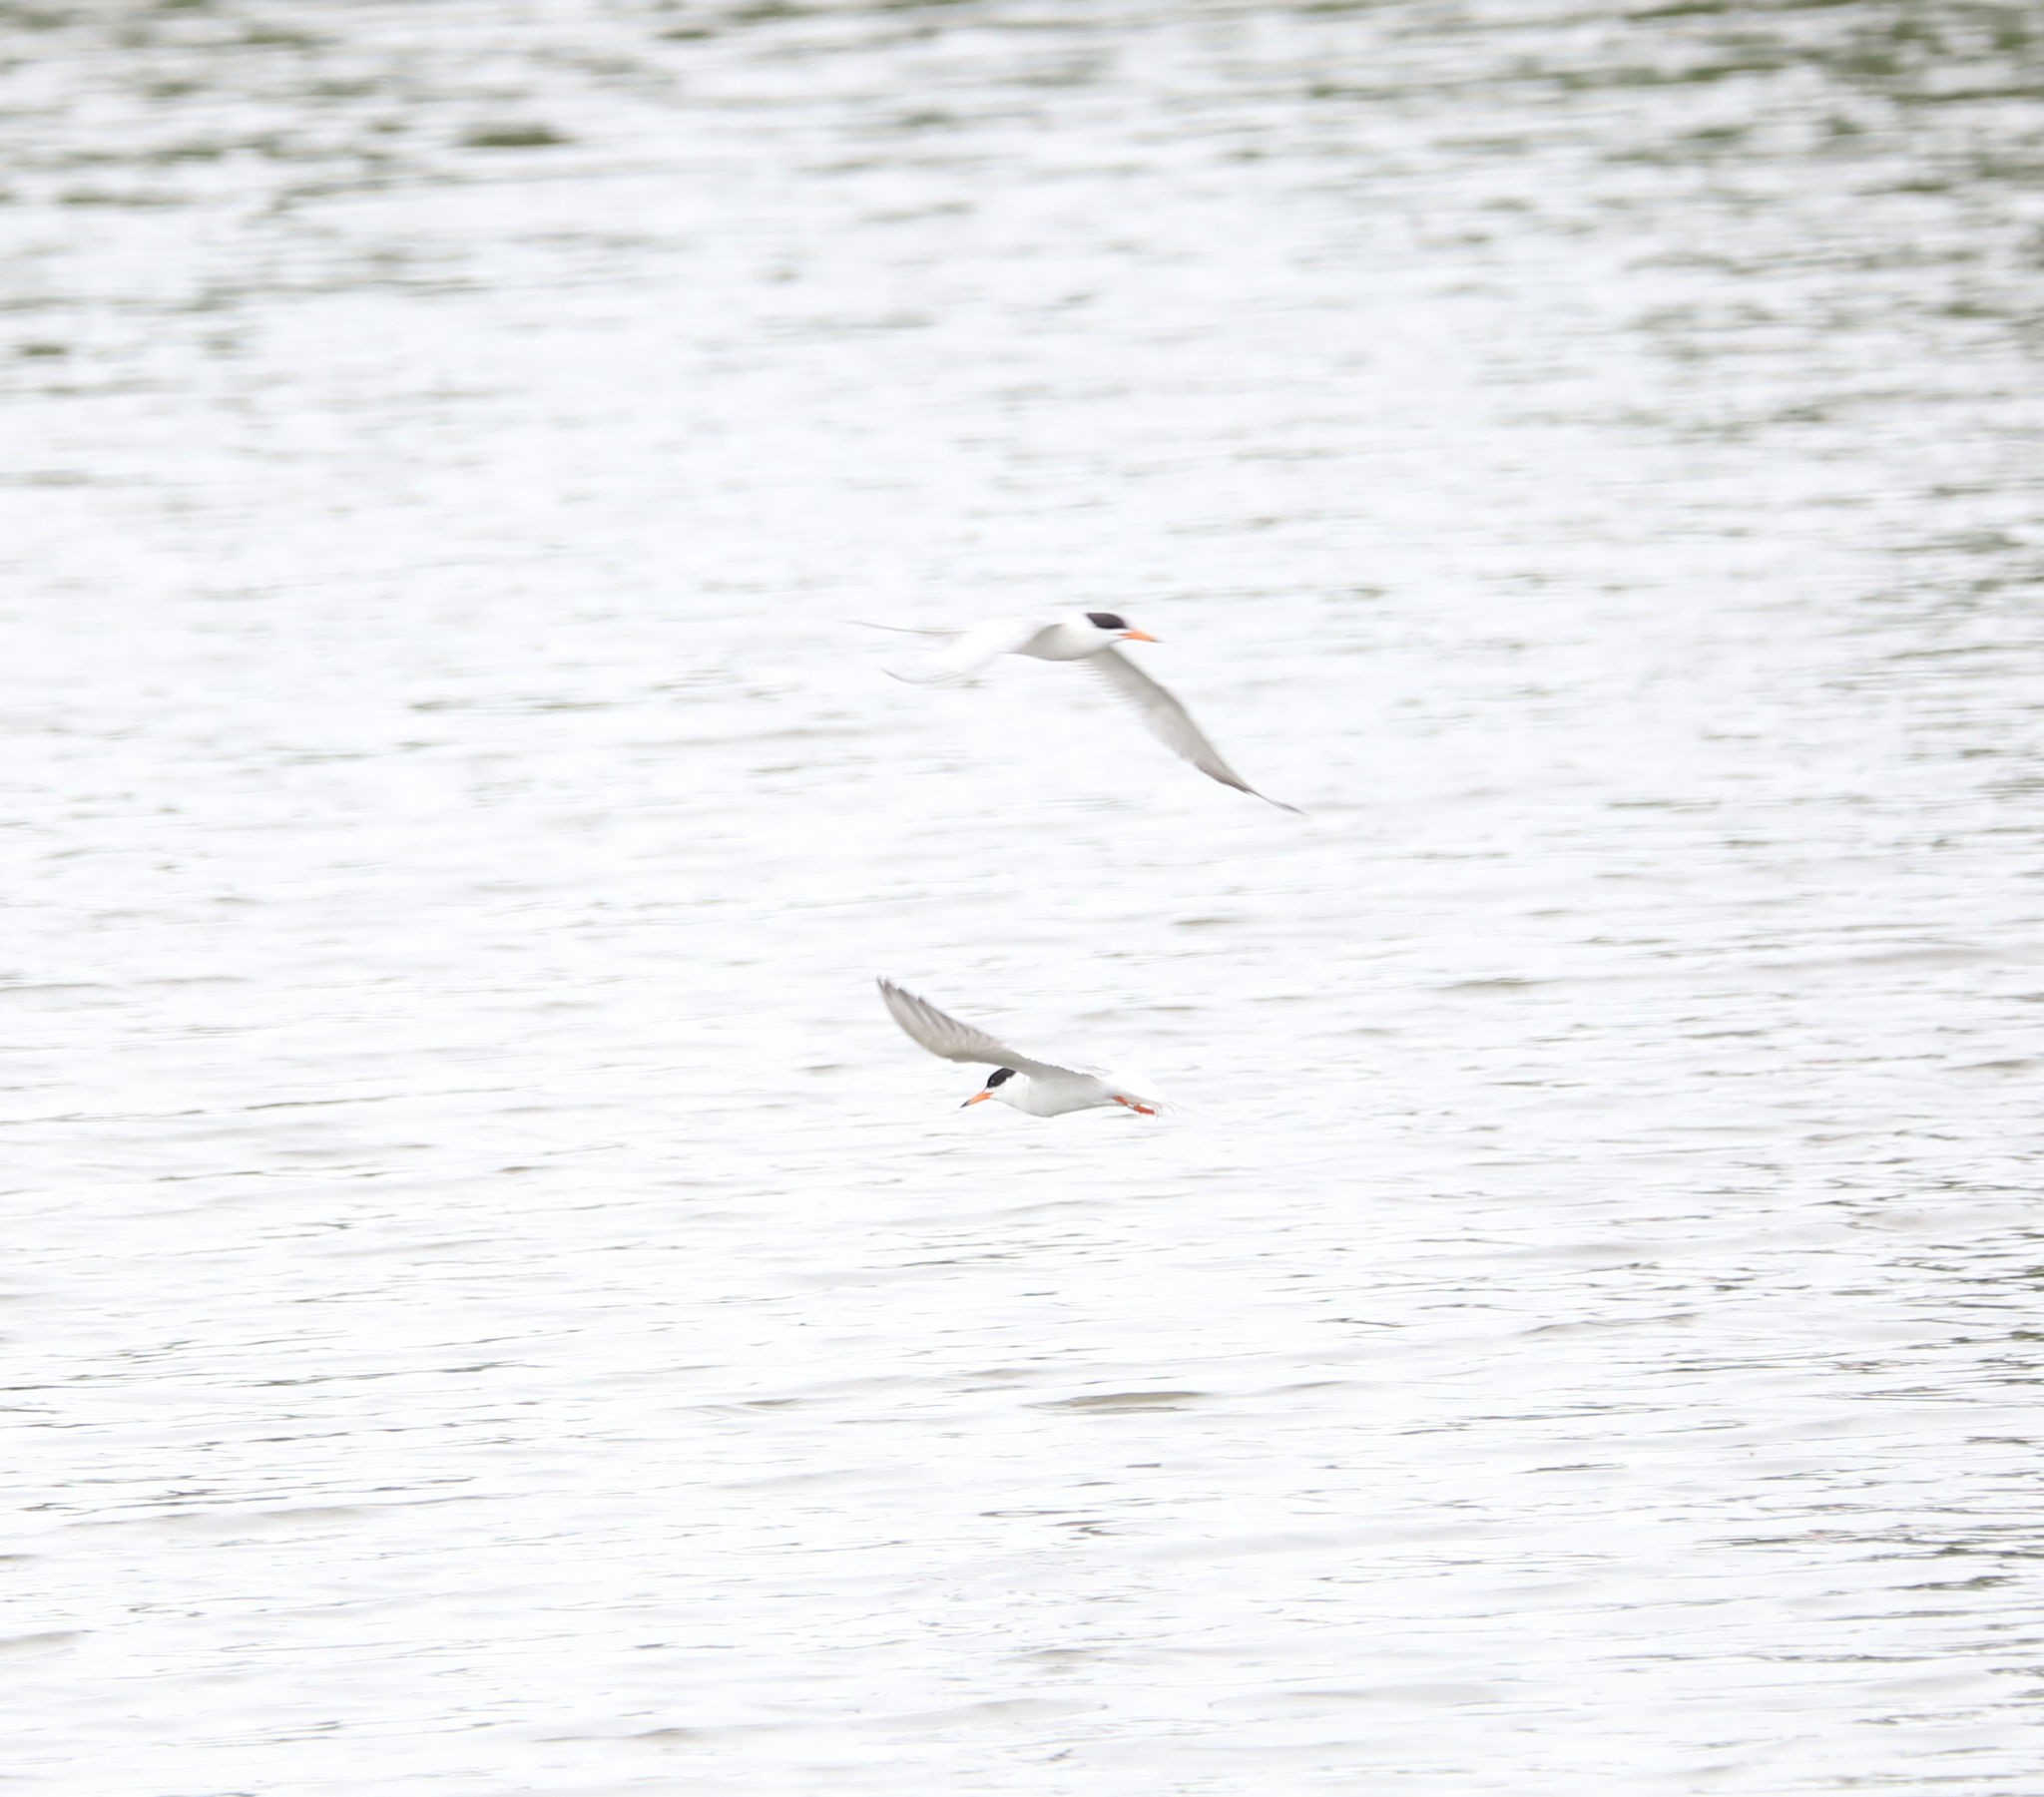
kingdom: Animalia
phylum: Chordata
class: Aves
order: Charadriiformes
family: Laridae
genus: Sterna
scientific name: Sterna forsteri
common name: Forster's tern
